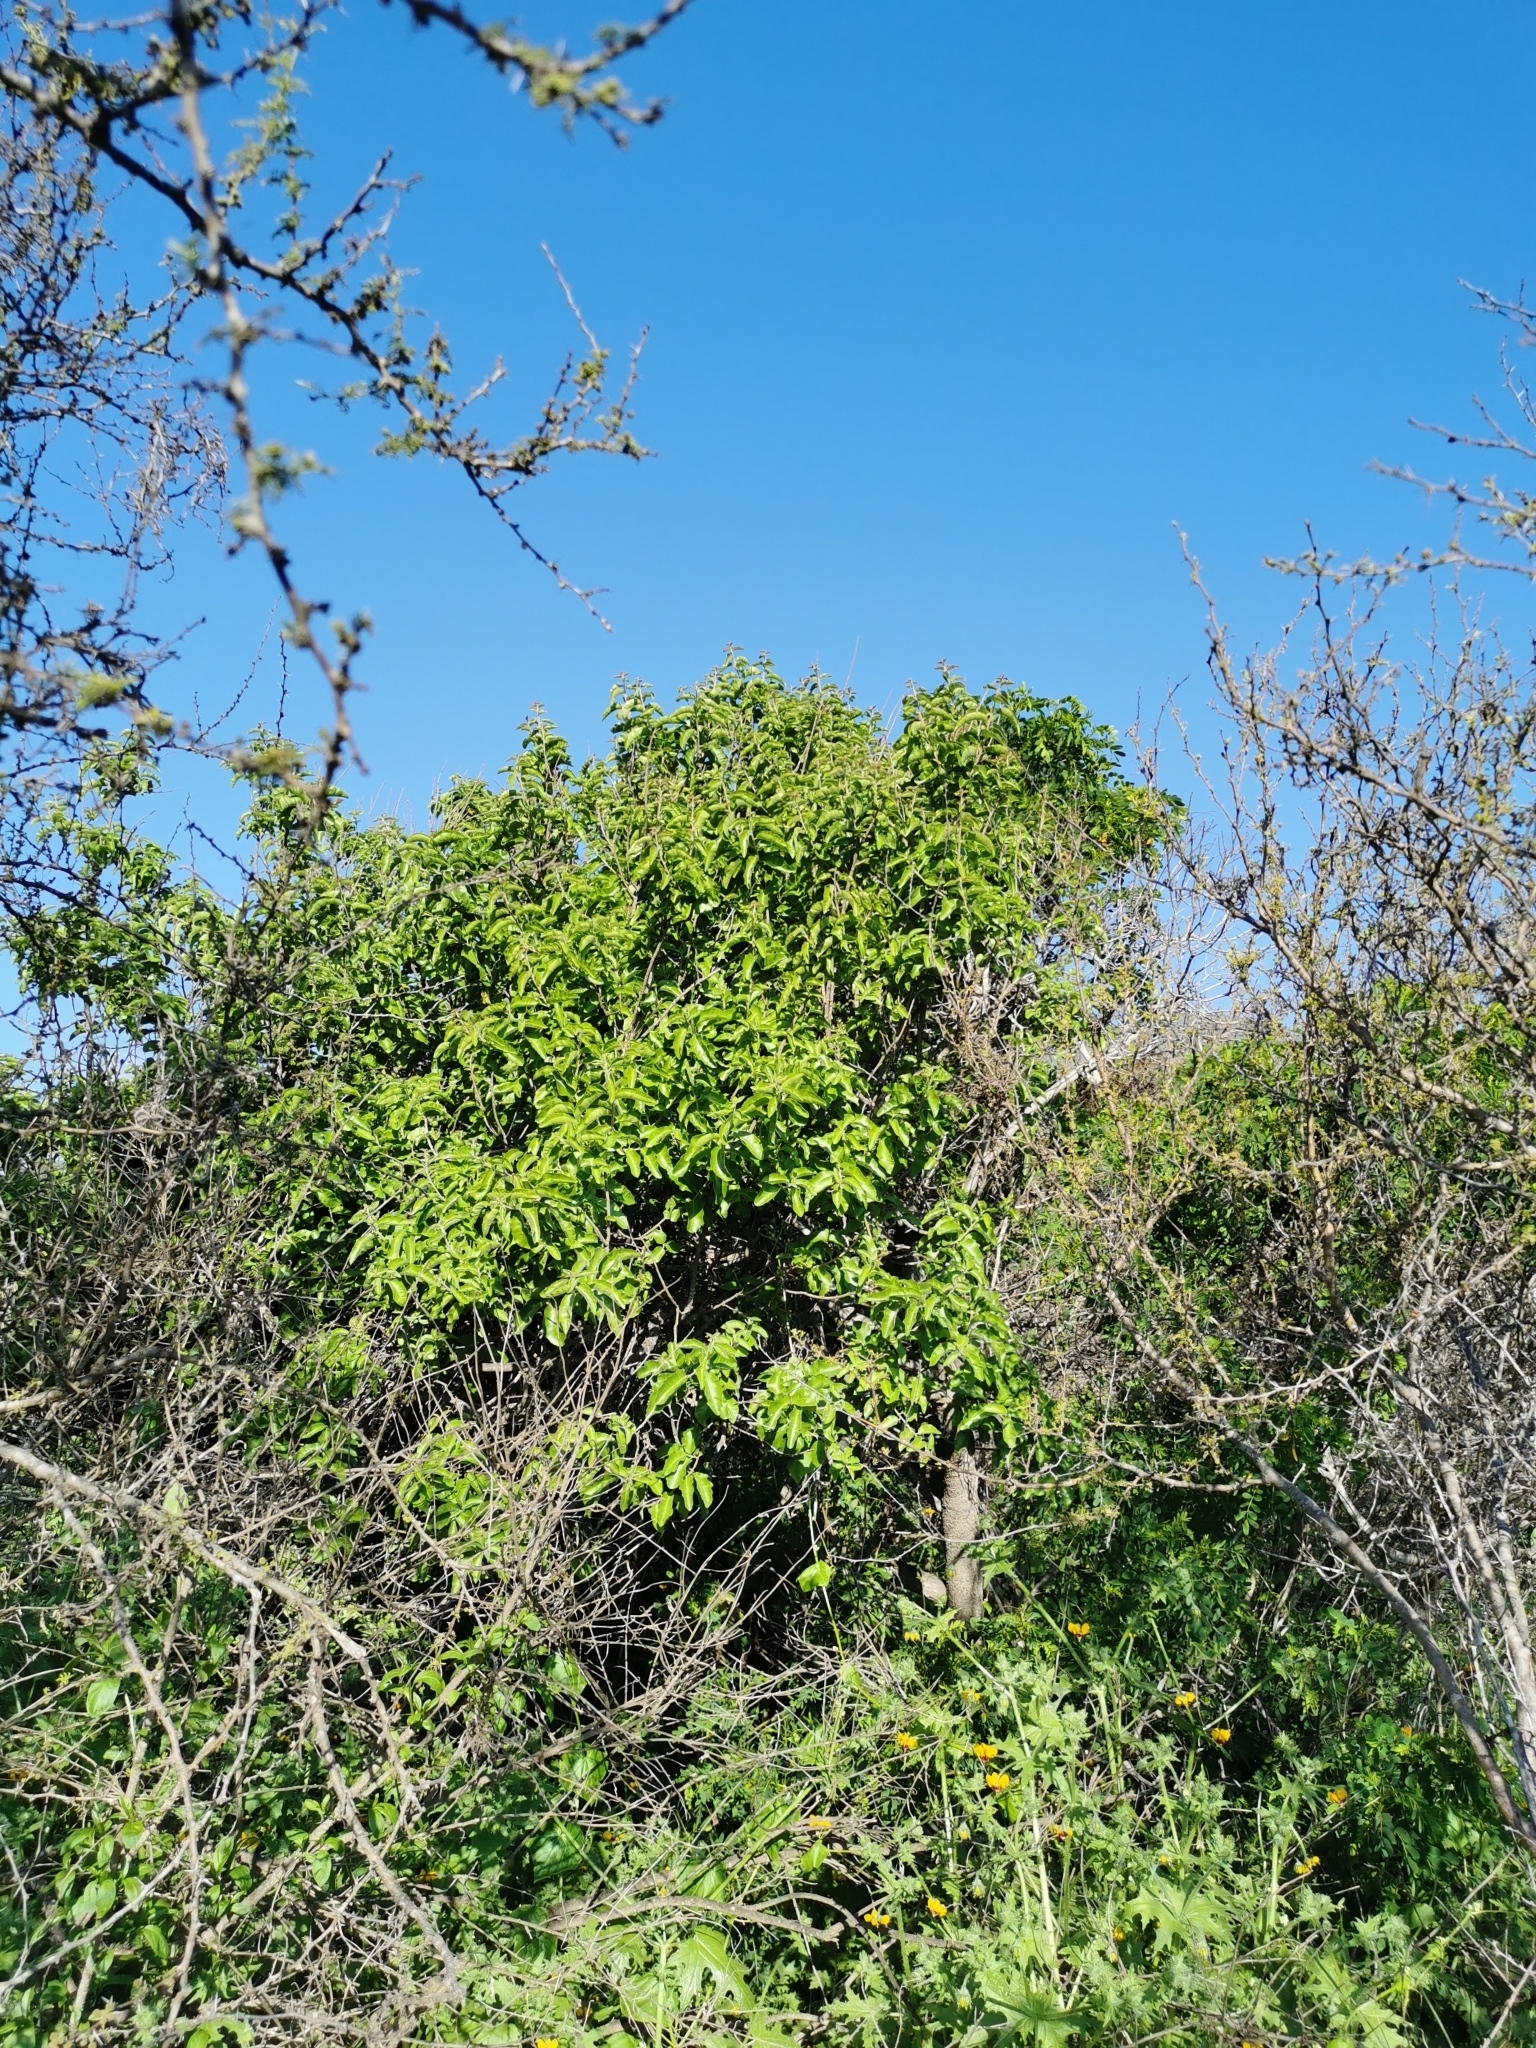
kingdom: Plantae
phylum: Tracheophyta
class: Magnoliopsida
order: Sapindales
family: Anacardiaceae
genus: Schinus
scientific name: Schinus latifolia
